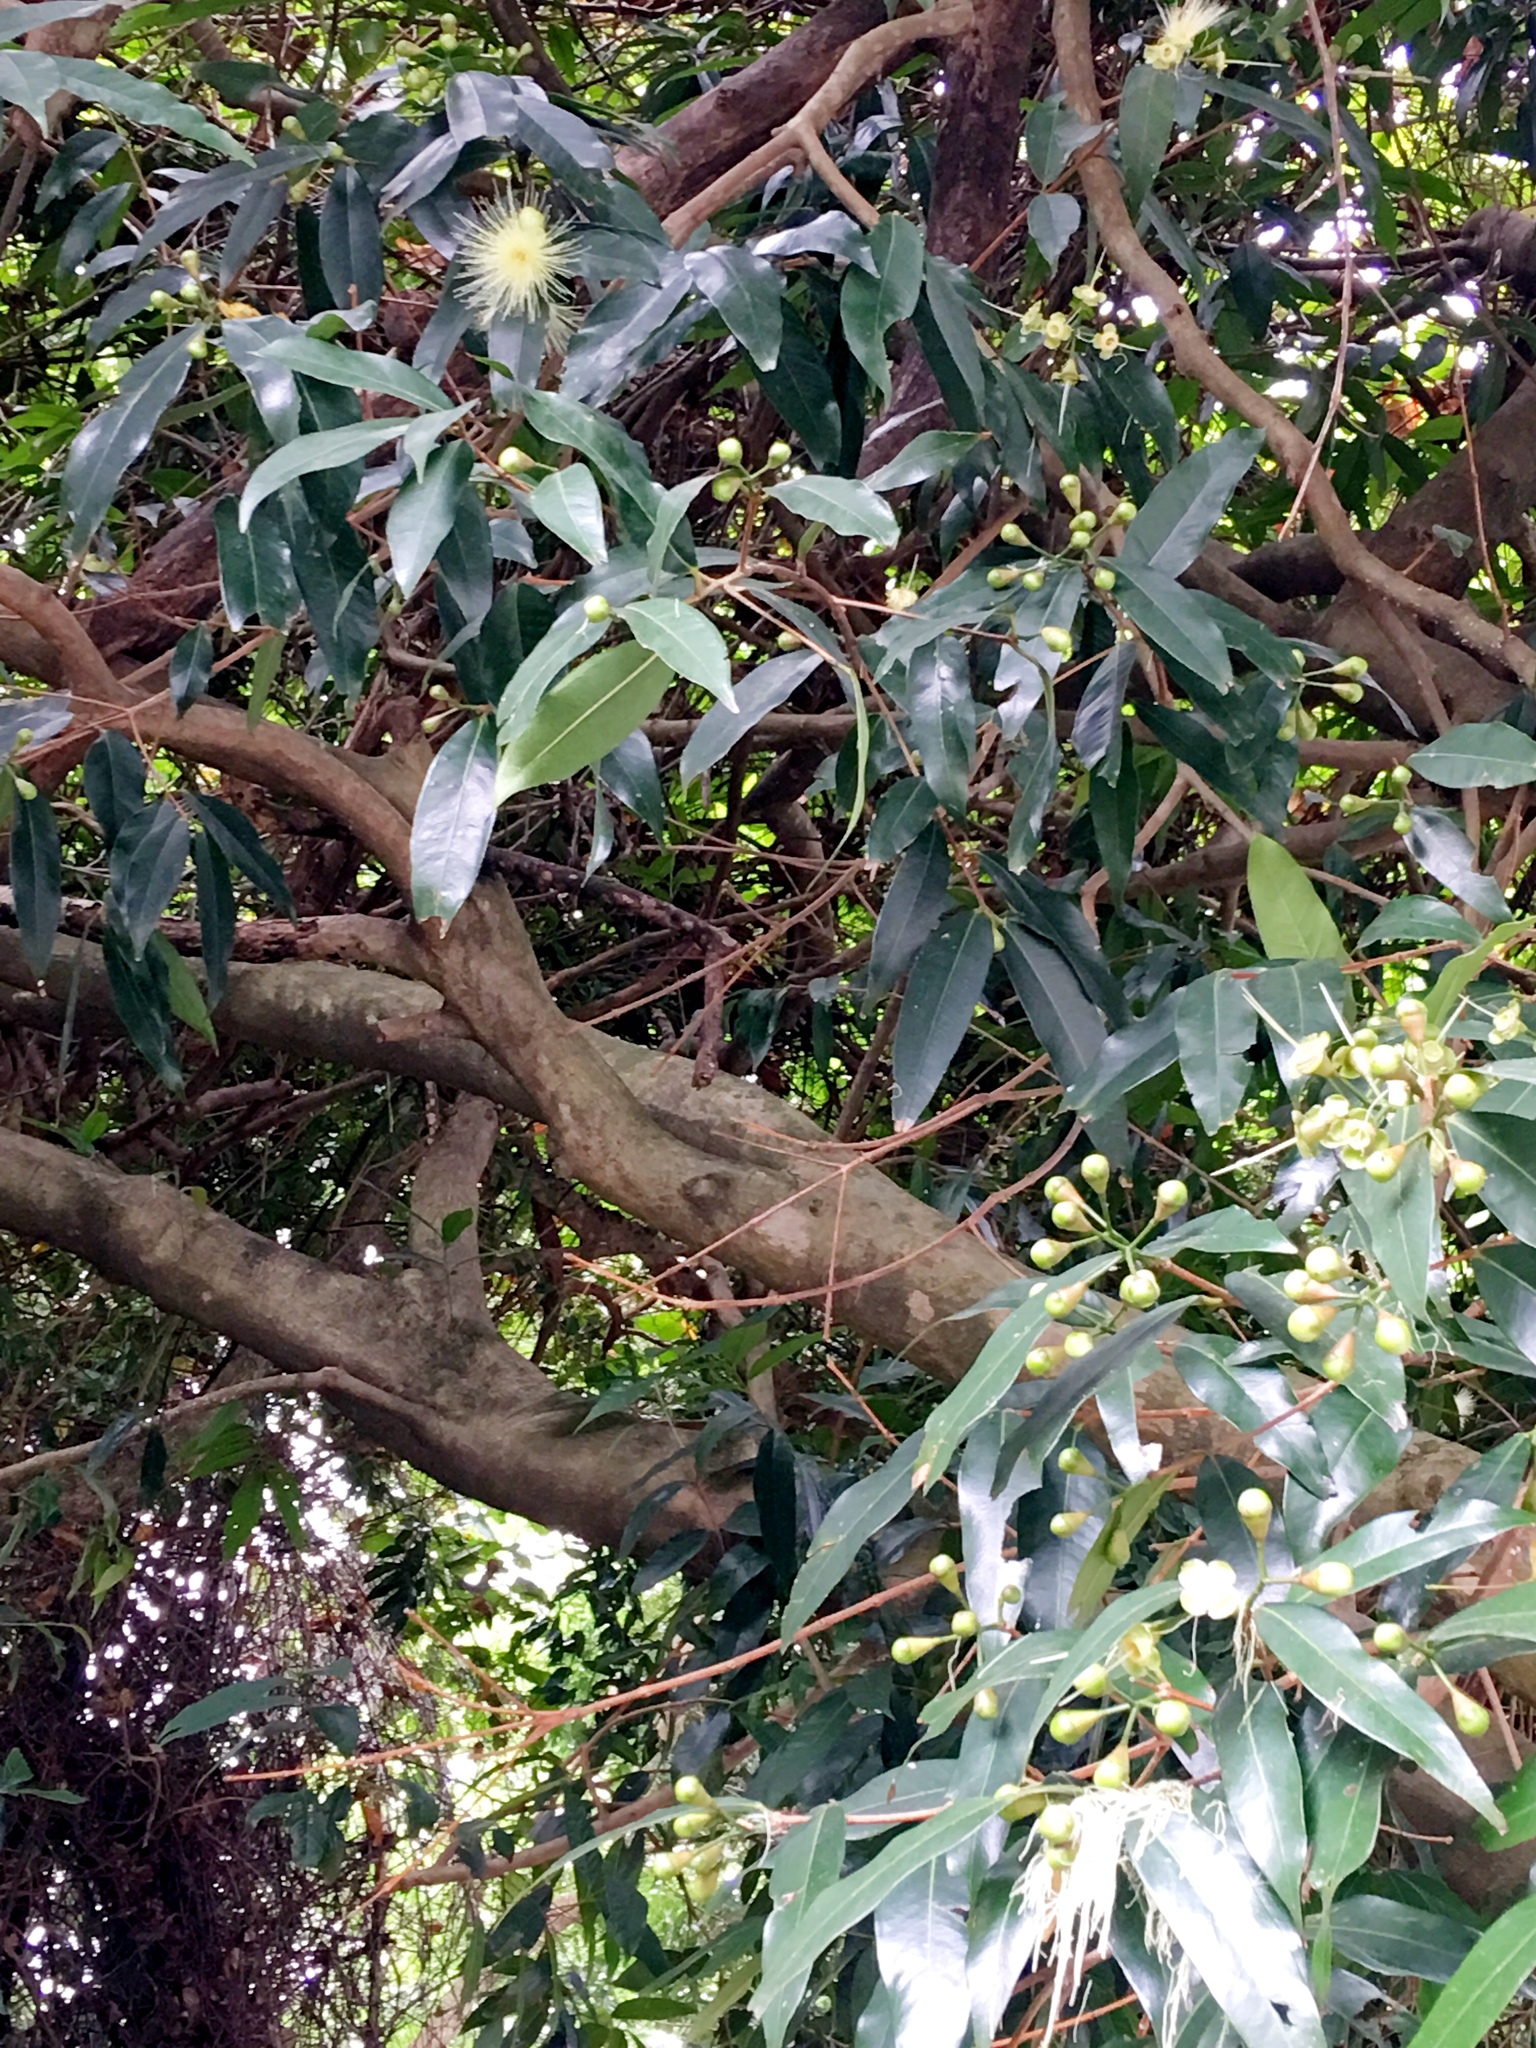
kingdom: Plantae
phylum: Tracheophyta
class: Magnoliopsida
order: Myrtales
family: Myrtaceae
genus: Syzygium
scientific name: Syzygium jambos
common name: Malabar plum
